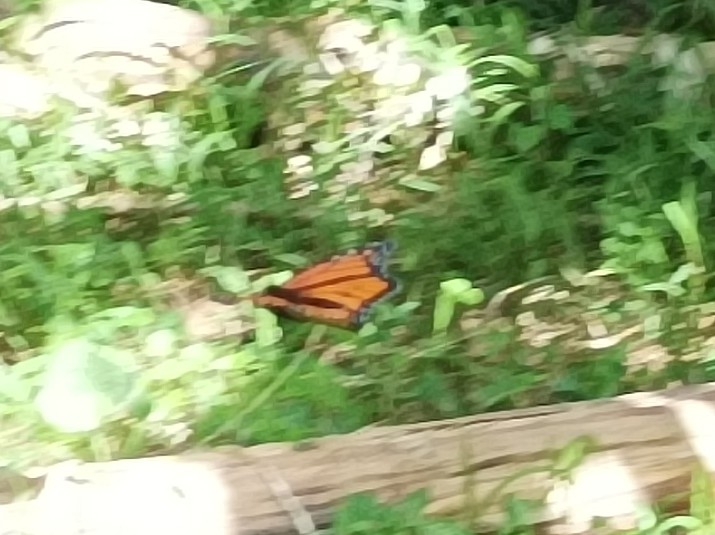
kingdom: Animalia
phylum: Arthropoda
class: Insecta
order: Lepidoptera
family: Nymphalidae
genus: Danaus
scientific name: Danaus plexippus
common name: Monarch
